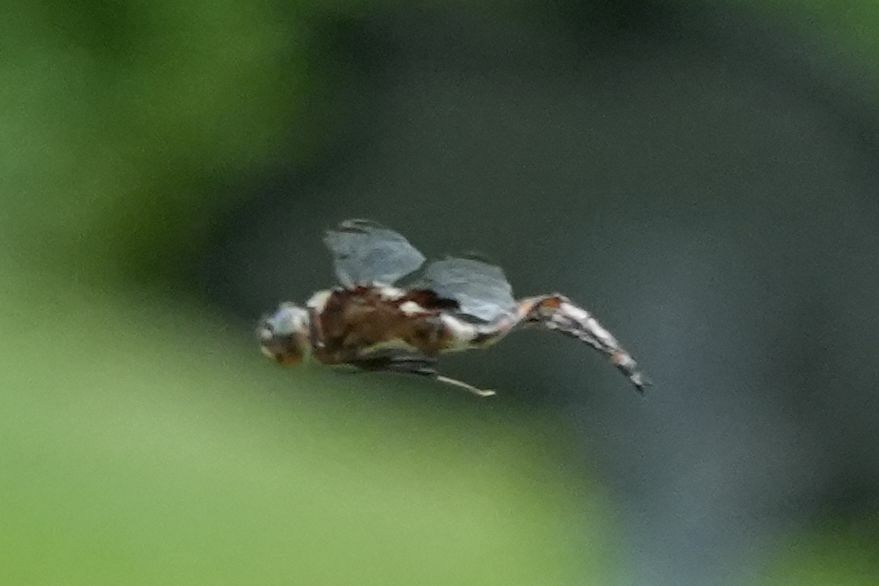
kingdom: Animalia
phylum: Arthropoda
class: Insecta
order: Odonata
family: Corduliidae
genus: Epitheca
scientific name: Epitheca princeps
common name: Prince baskettail
